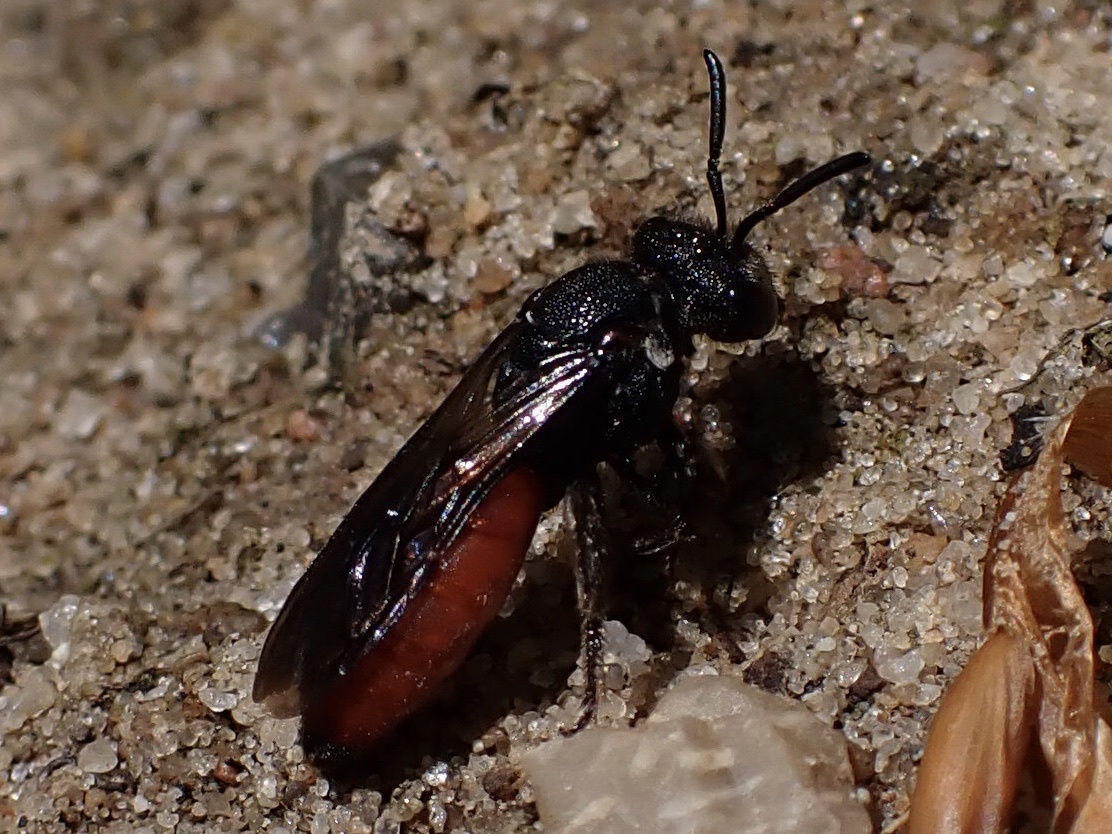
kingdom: Animalia
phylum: Arthropoda
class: Insecta
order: Hymenoptera
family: Halictidae
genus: Sphecodes
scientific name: Sphecodes albilabris
